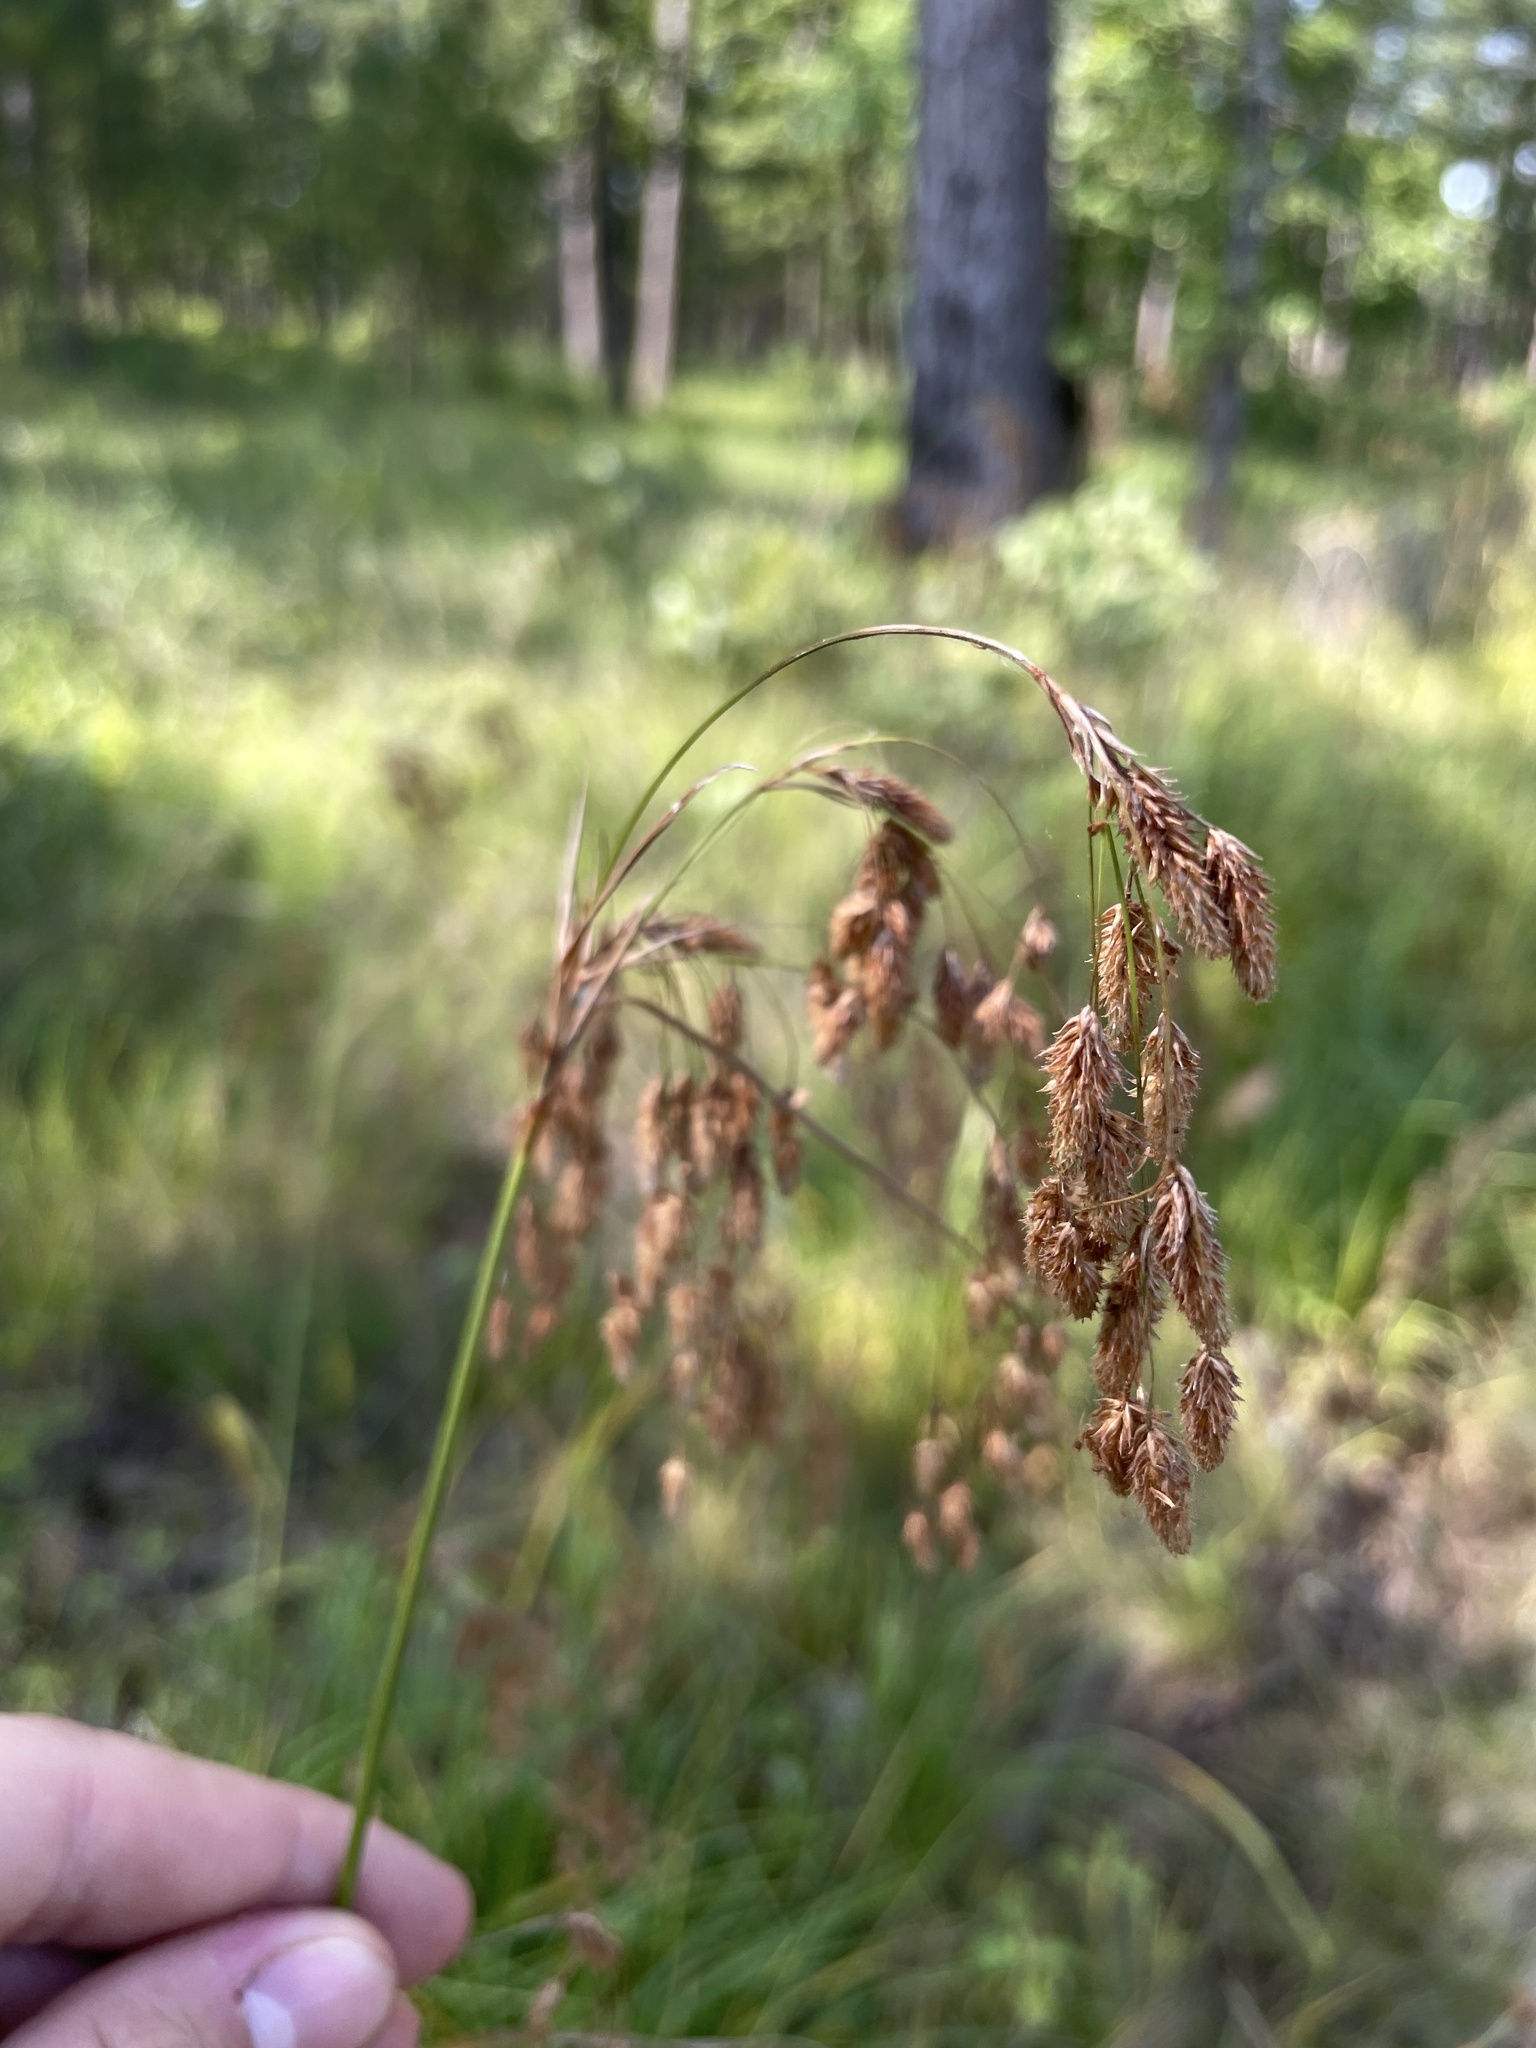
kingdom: Plantae
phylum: Tracheophyta
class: Liliopsida
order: Poales
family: Cyperaceae
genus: Scirpus
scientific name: Scirpus lineatus
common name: Drooping bulrush
